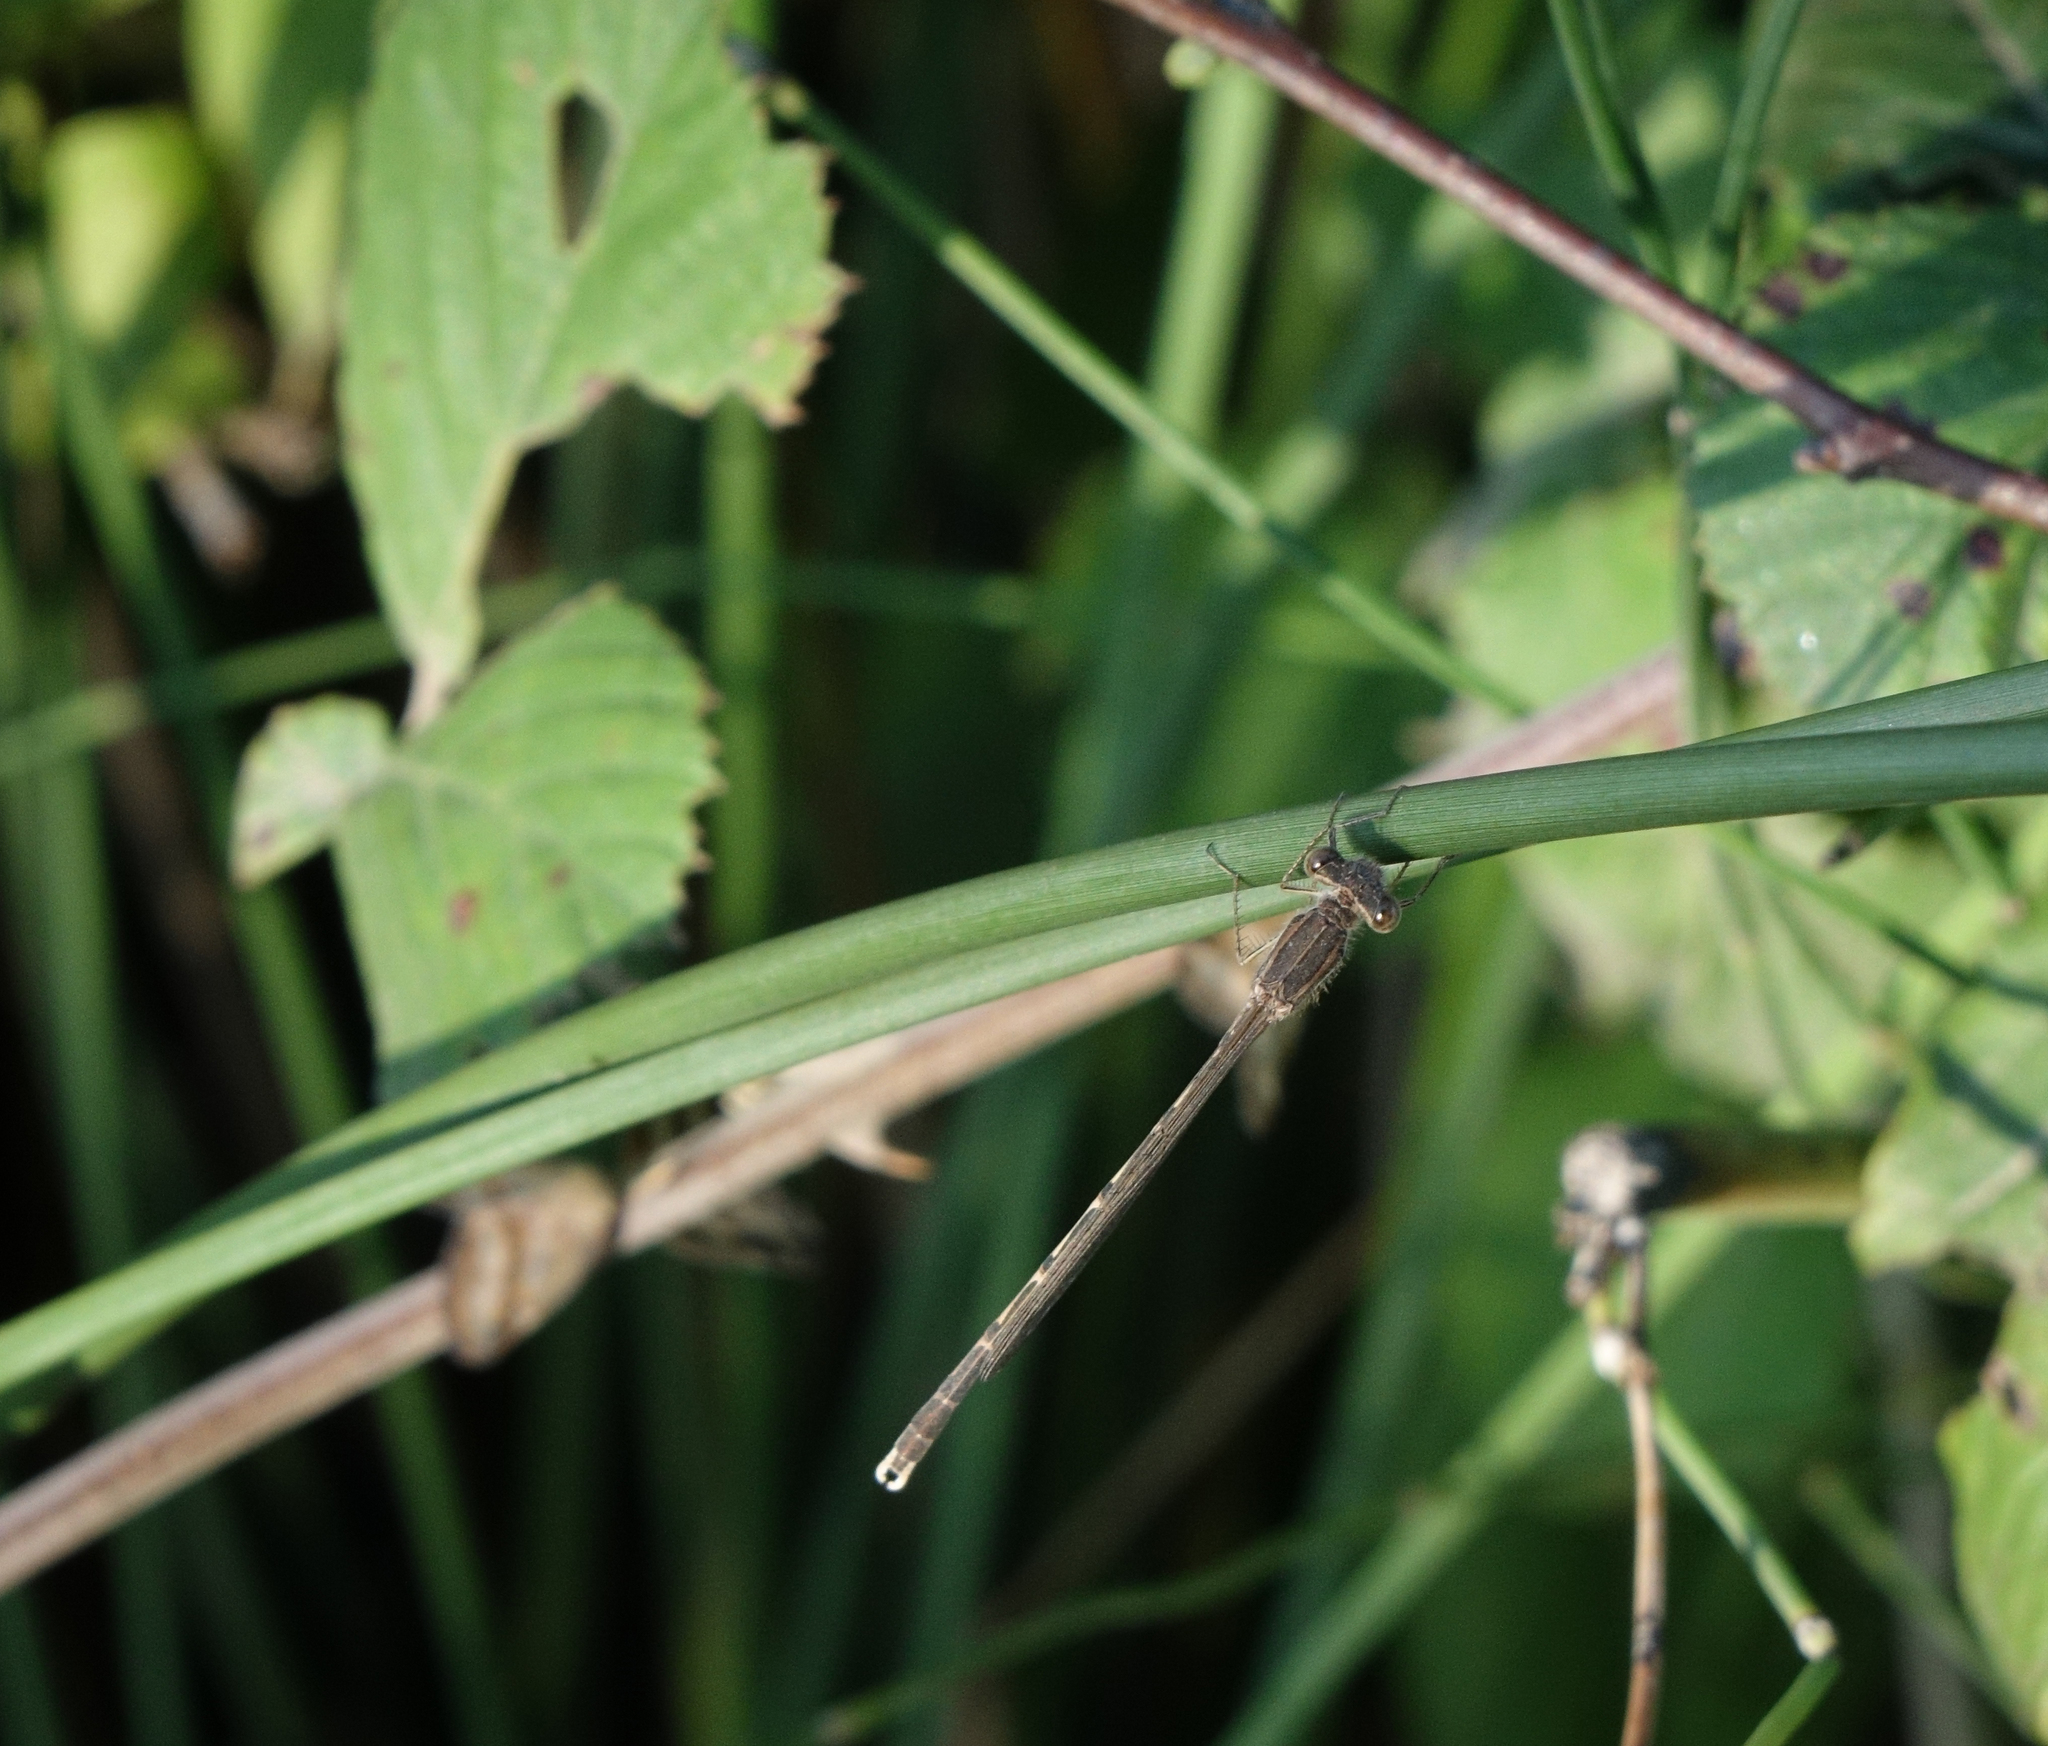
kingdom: Animalia
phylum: Arthropoda
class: Insecta
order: Odonata
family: Lestidae
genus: Sympecma
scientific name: Sympecma fusca
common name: Common winter damsel
